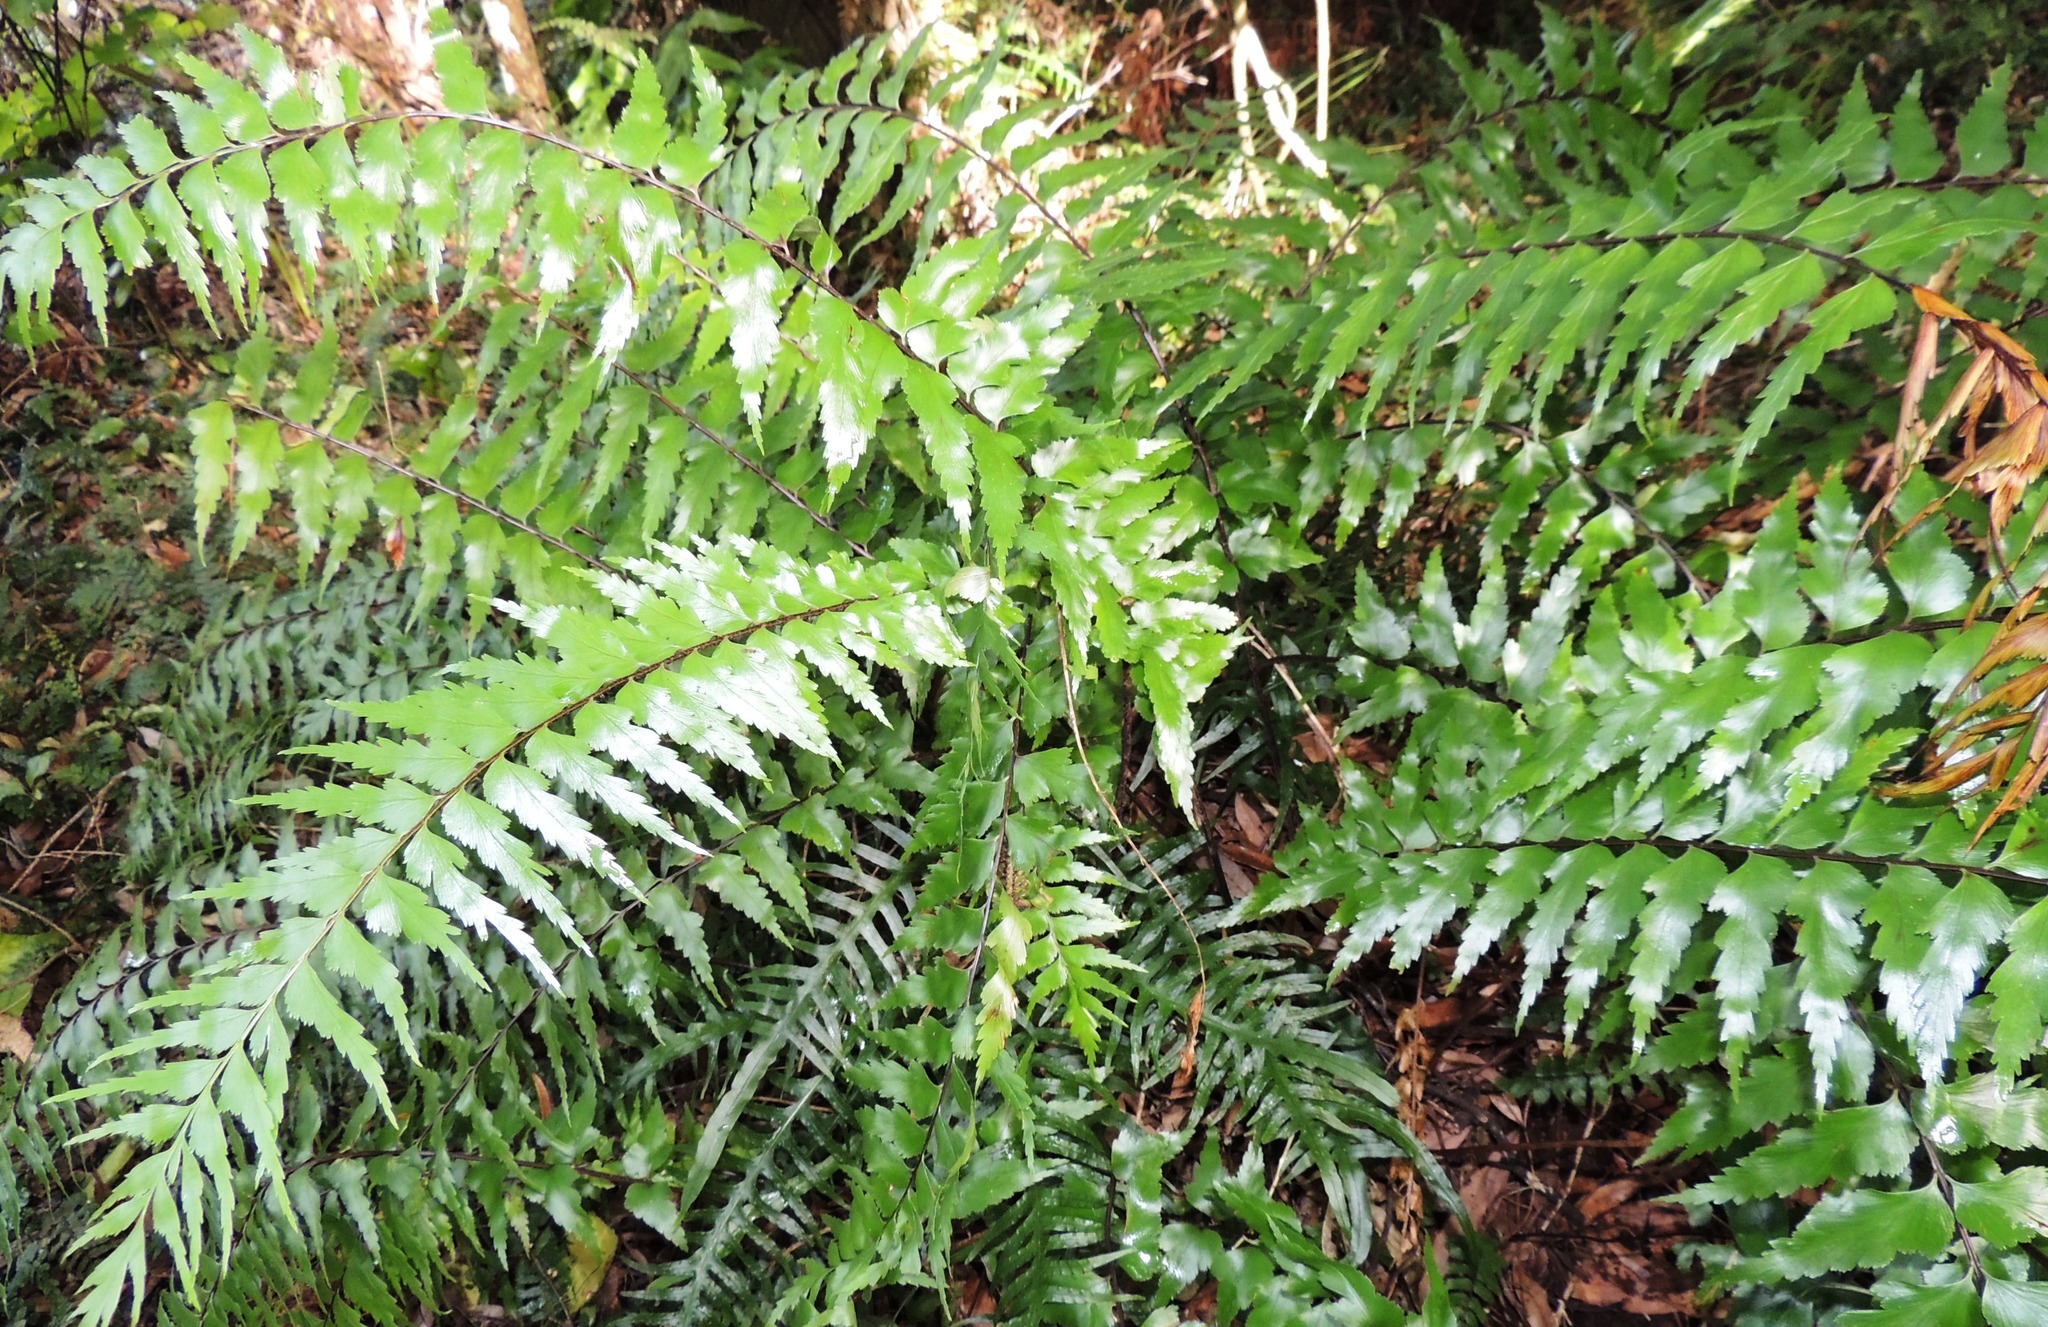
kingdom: Plantae
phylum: Tracheophyta
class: Polypodiopsida
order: Polypodiales
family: Aspleniaceae
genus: Asplenium
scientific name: Asplenium polyodon
